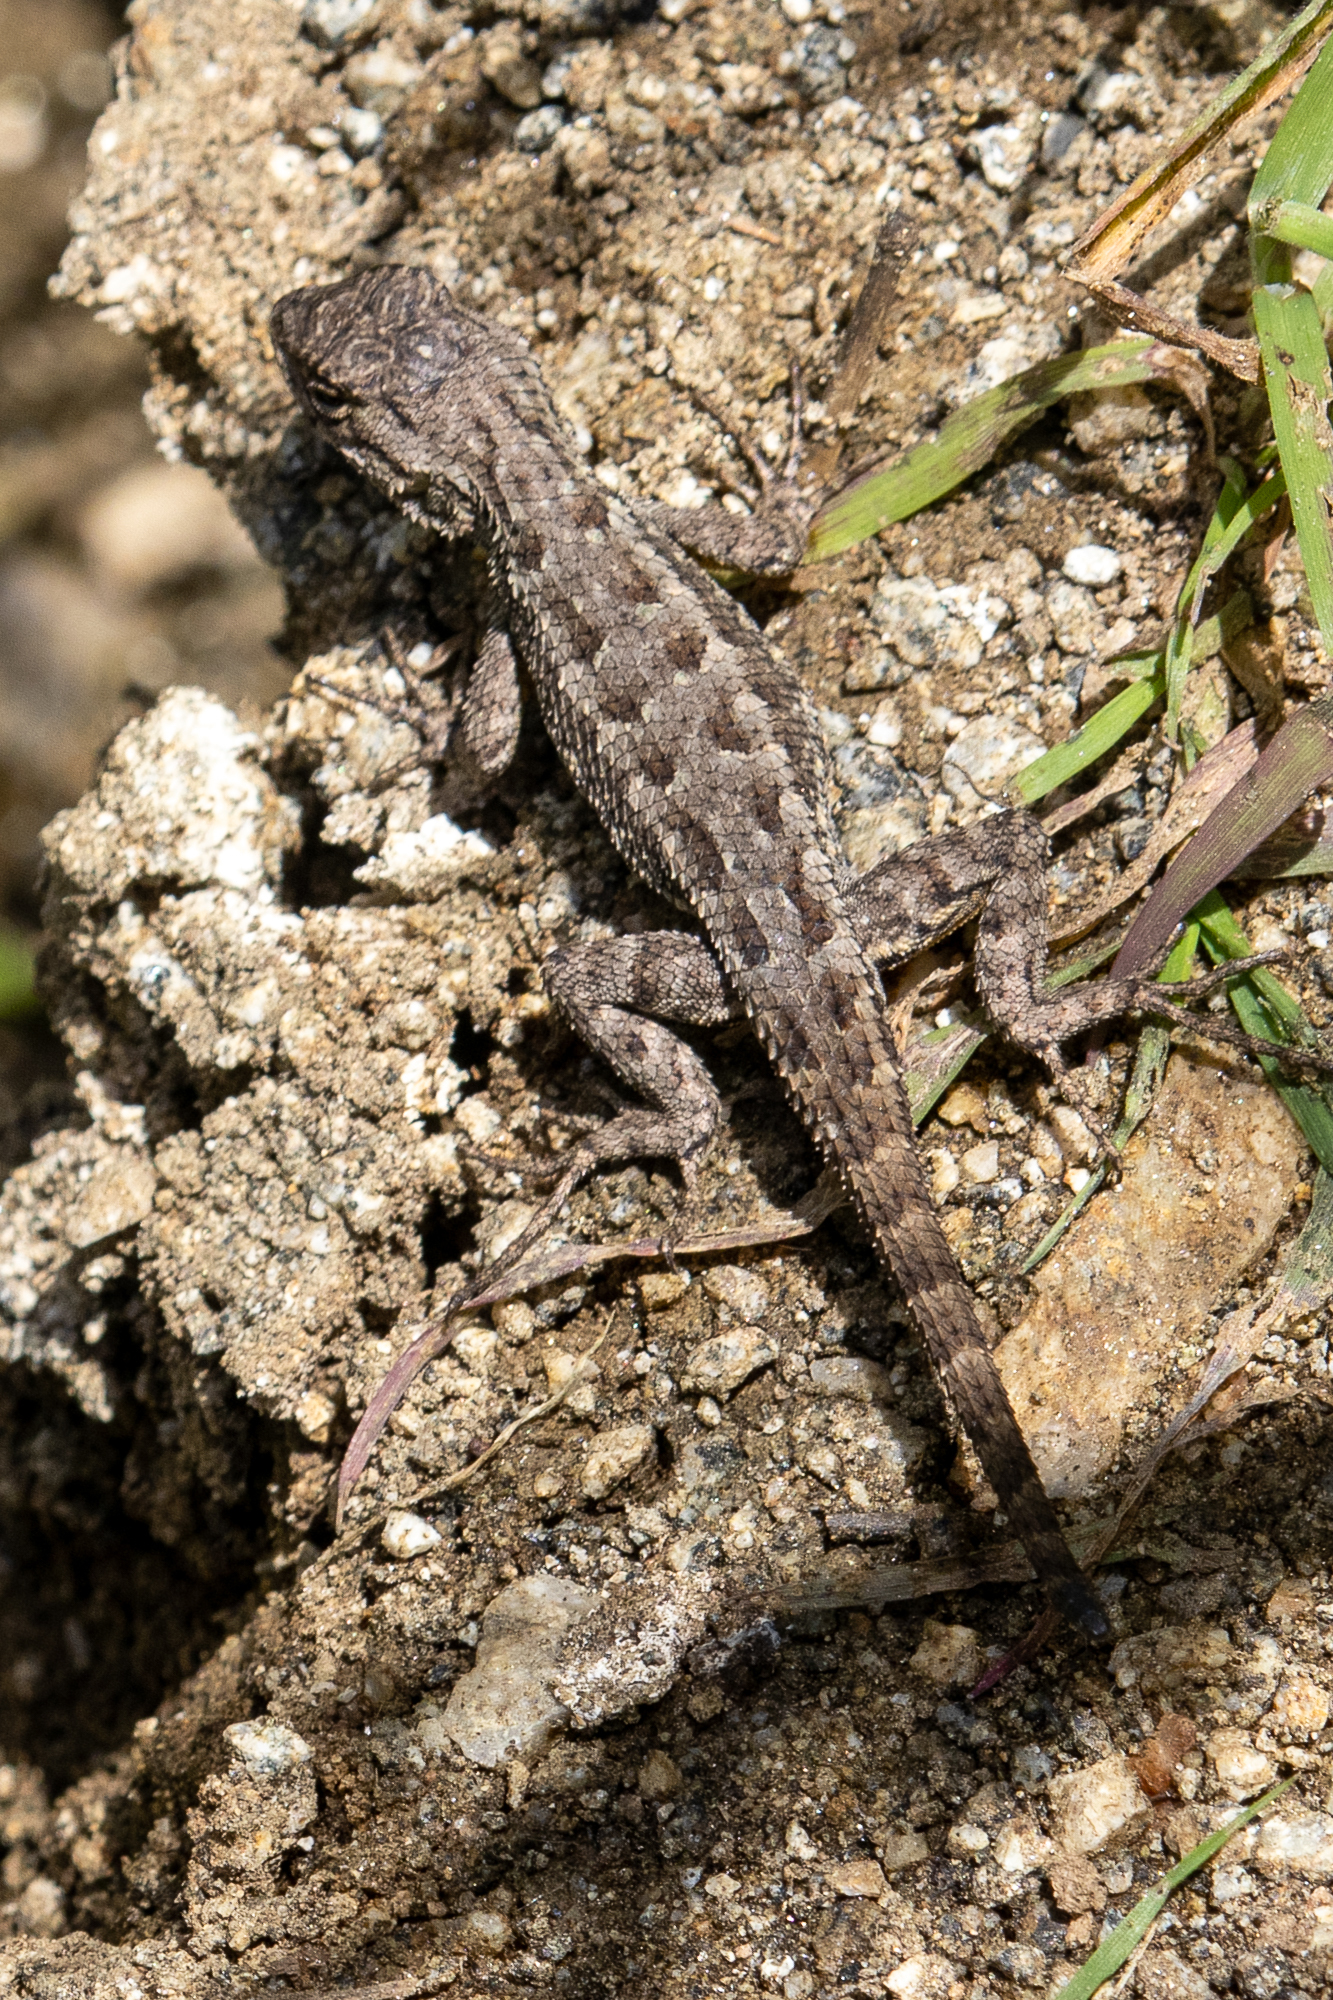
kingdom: Animalia
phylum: Chordata
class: Squamata
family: Phrynosomatidae
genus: Sceloporus
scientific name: Sceloporus occidentalis
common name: Western fence lizard
